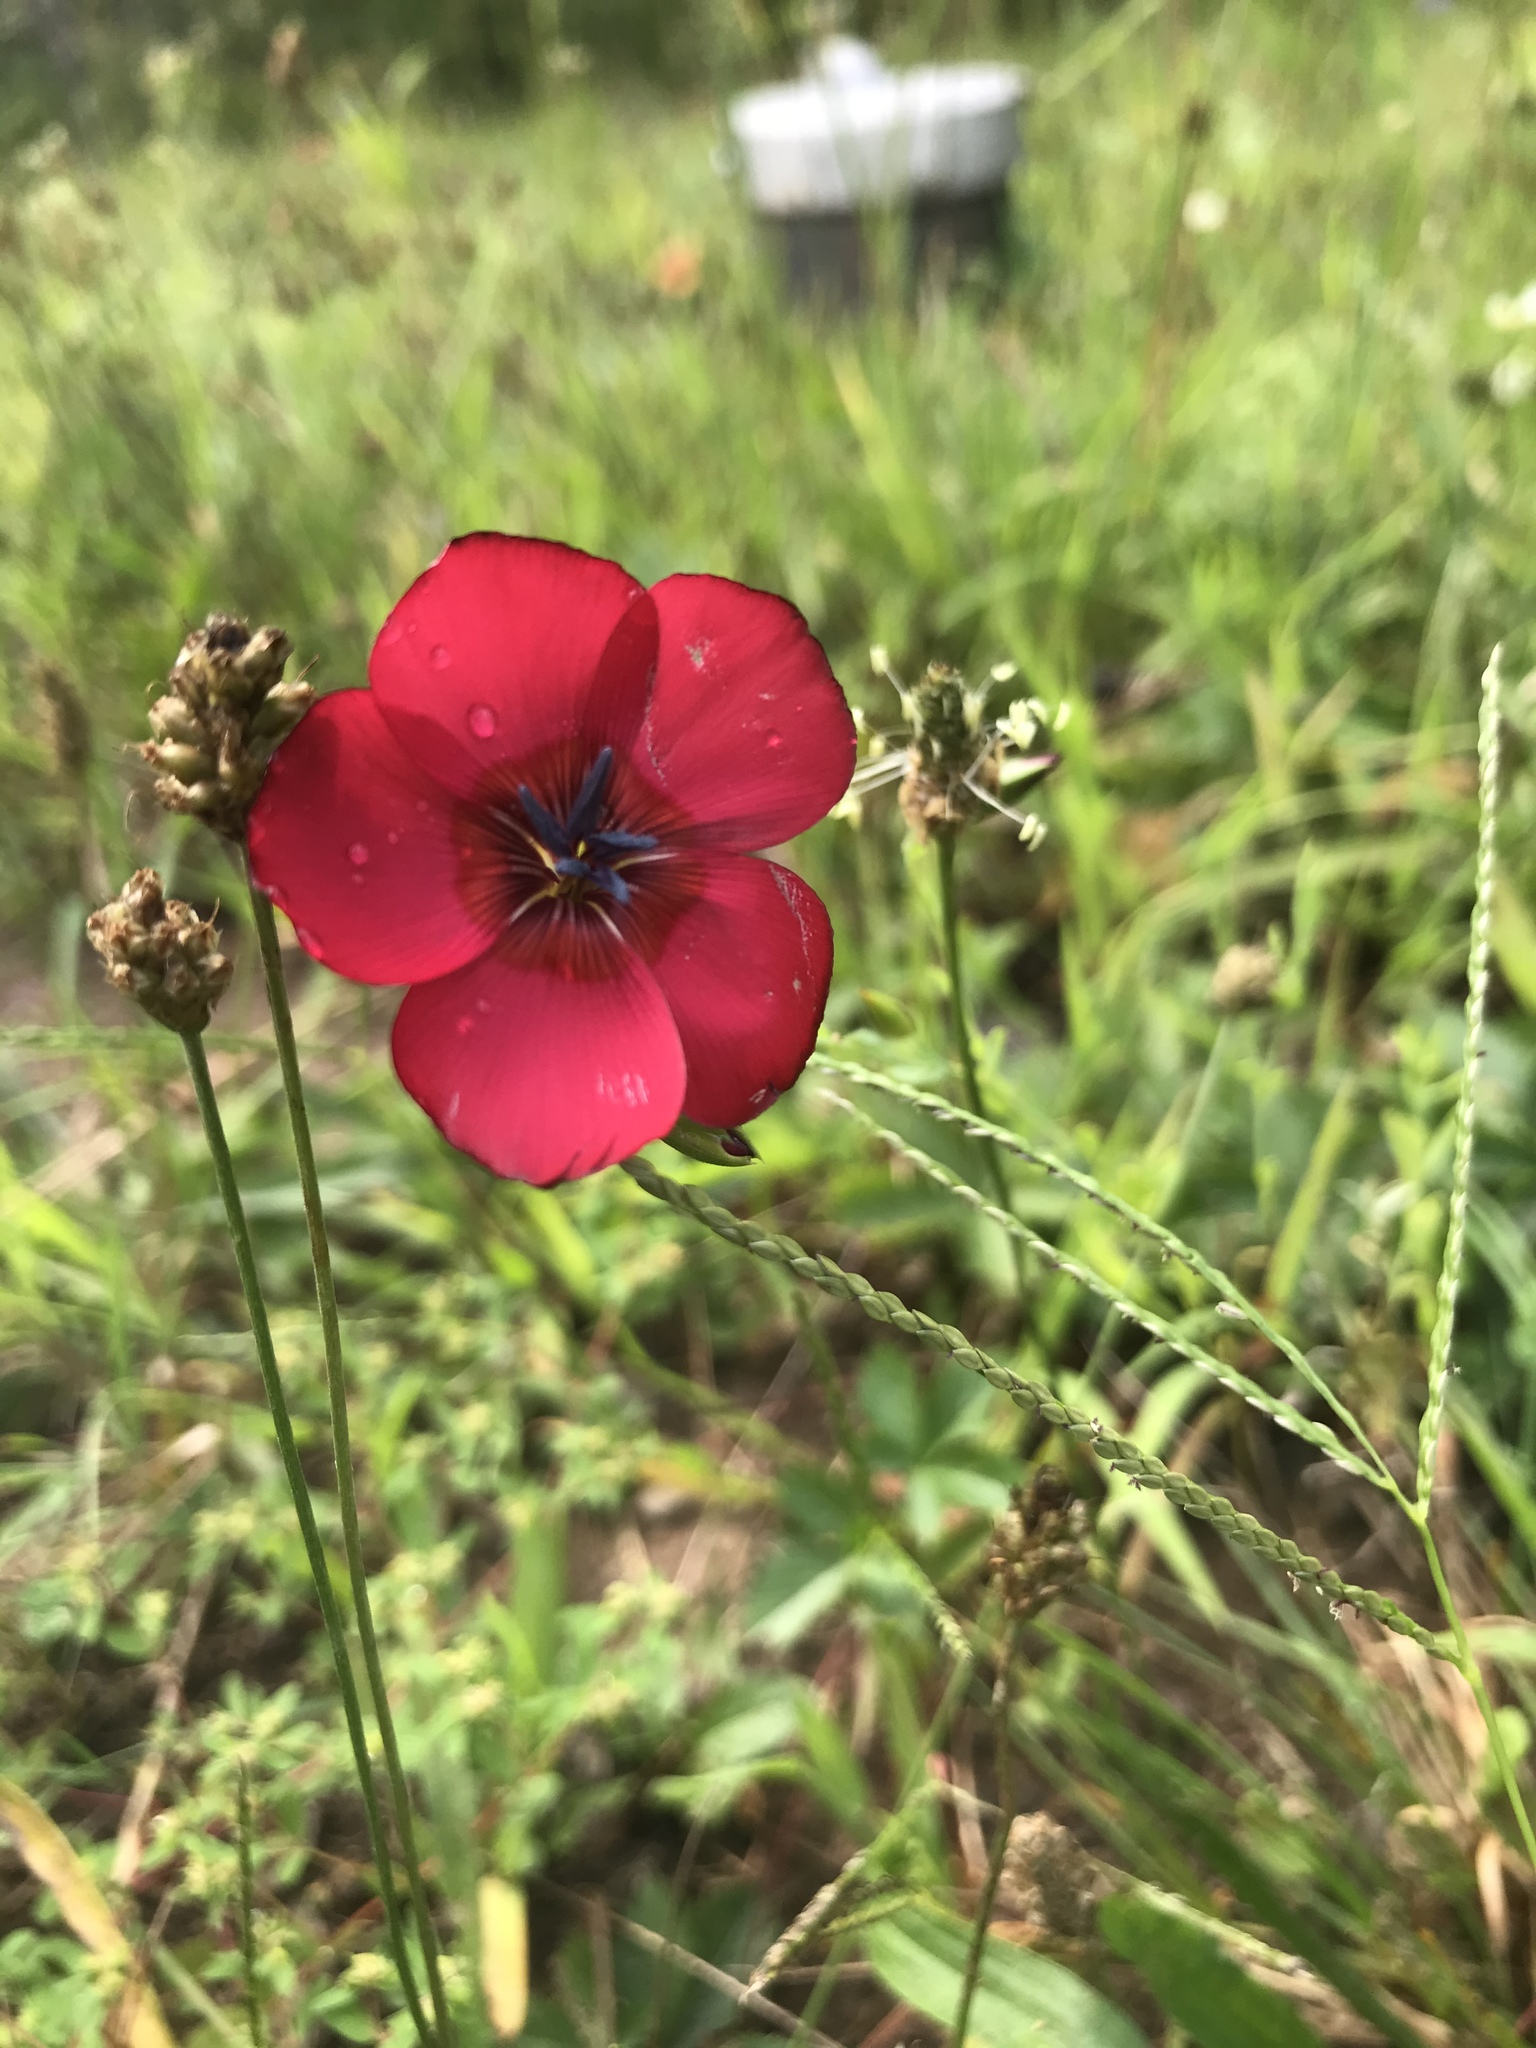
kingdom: Plantae
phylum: Tracheophyta
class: Magnoliopsida
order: Malpighiales
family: Linaceae
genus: Linum
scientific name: Linum grandiflorum
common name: Crimson flax
